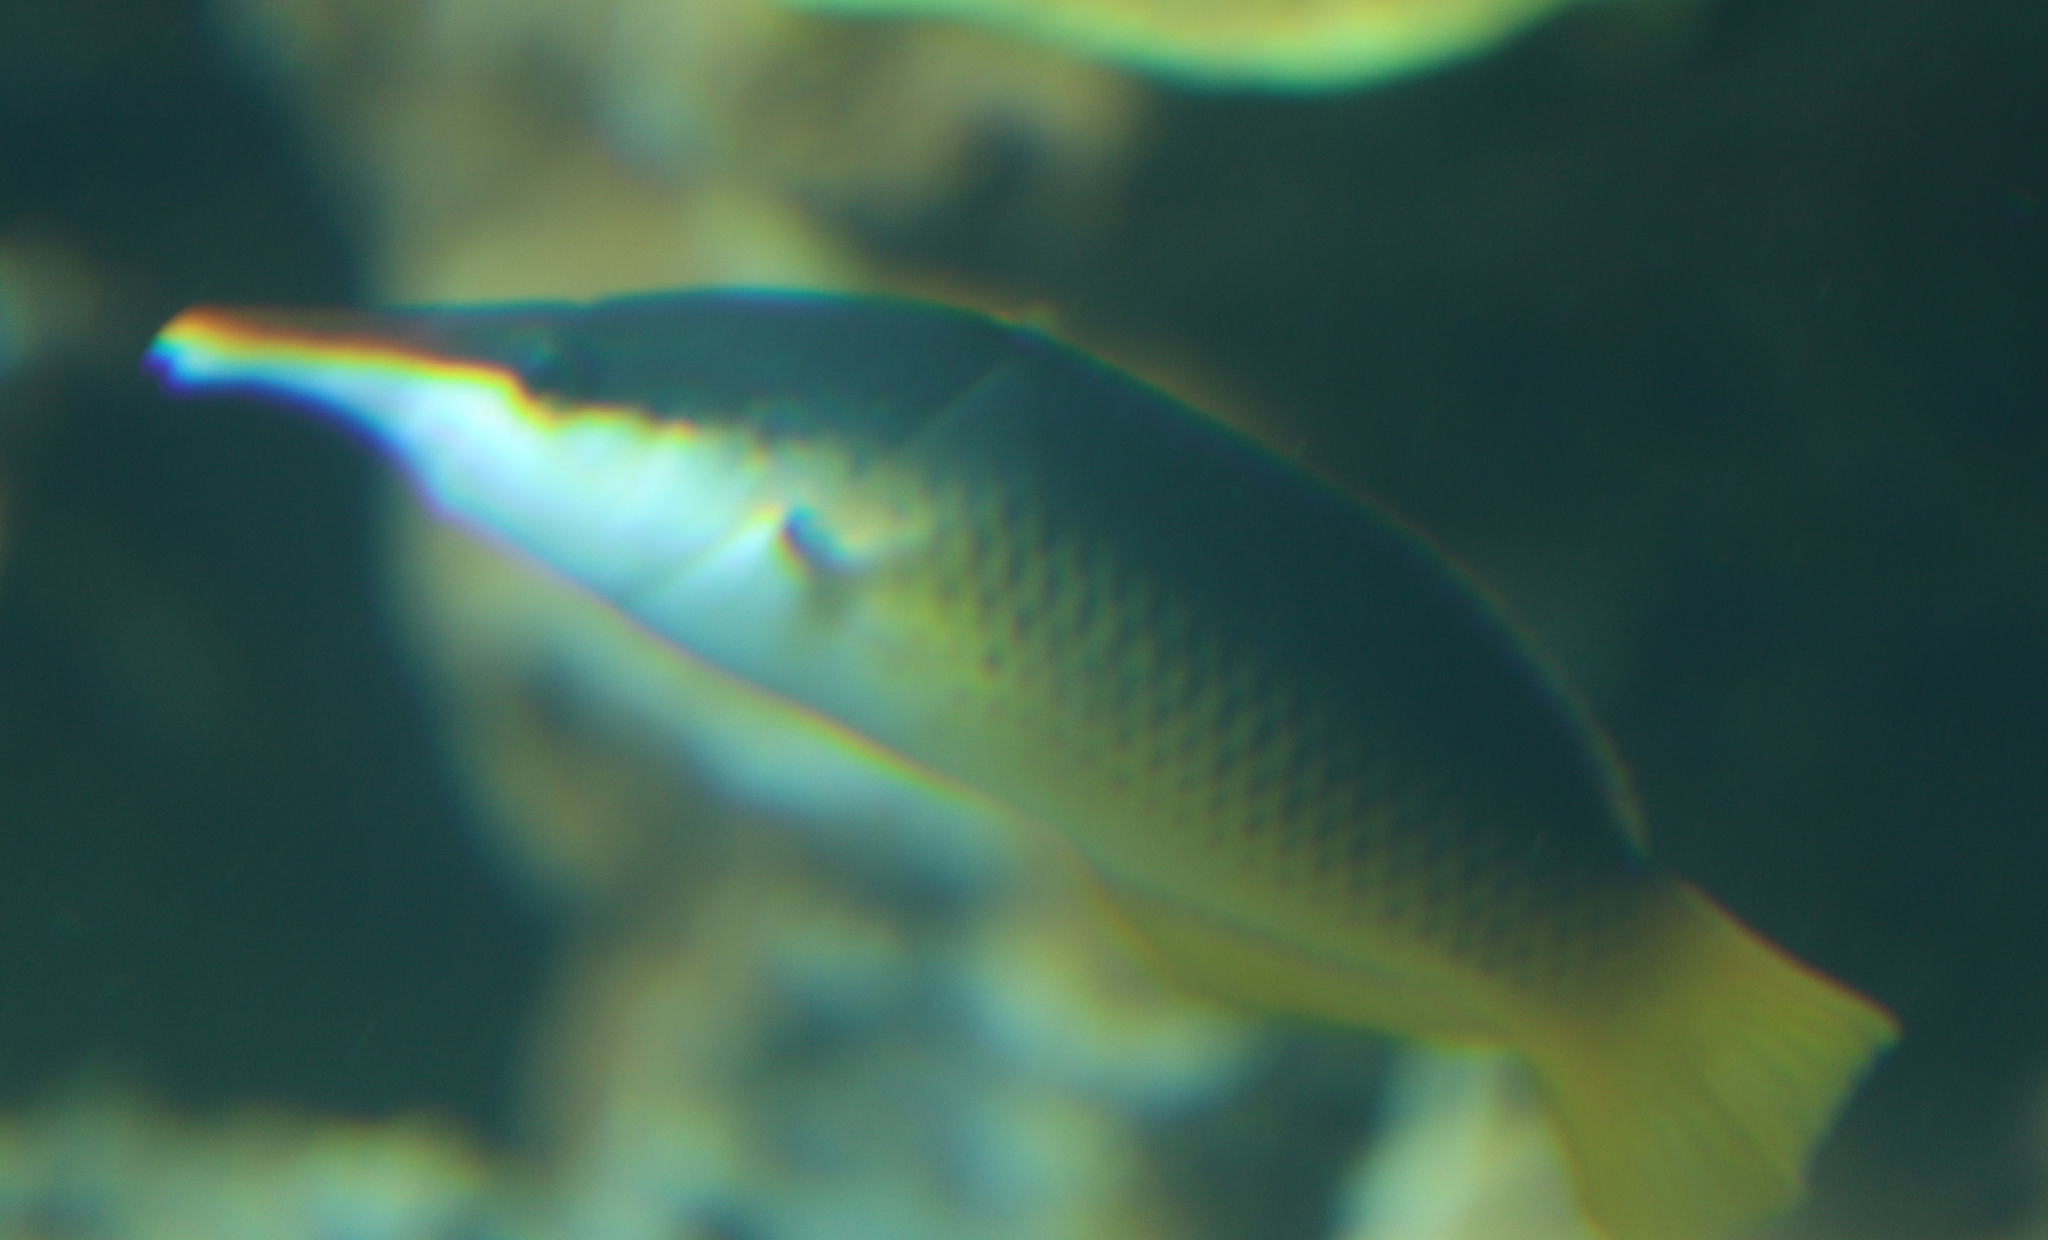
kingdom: Animalia
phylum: Chordata
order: Perciformes
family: Labridae
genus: Gomphosus
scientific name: Gomphosus klunzingeri
